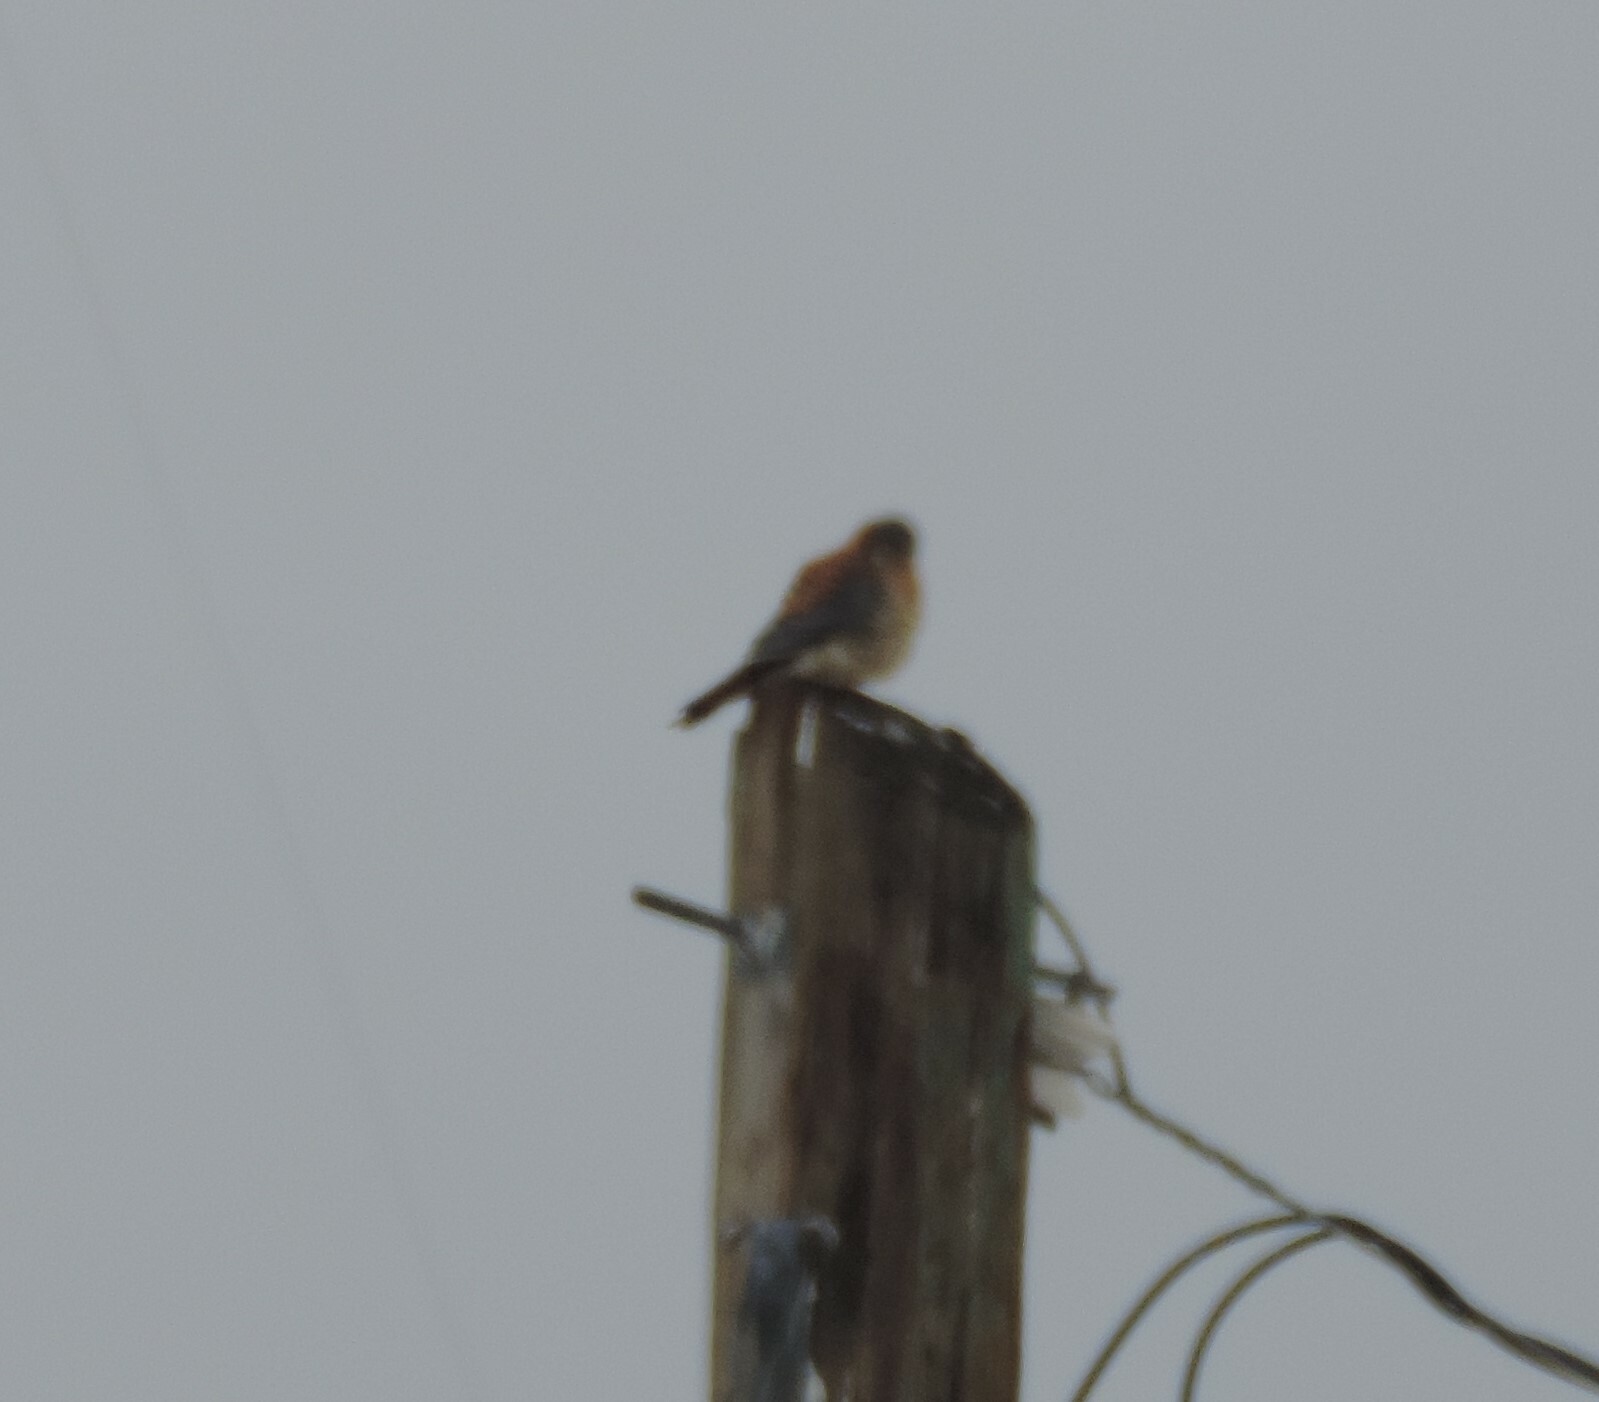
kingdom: Animalia
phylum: Chordata
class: Aves
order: Falconiformes
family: Falconidae
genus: Falco
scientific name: Falco sparverius
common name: American kestrel
